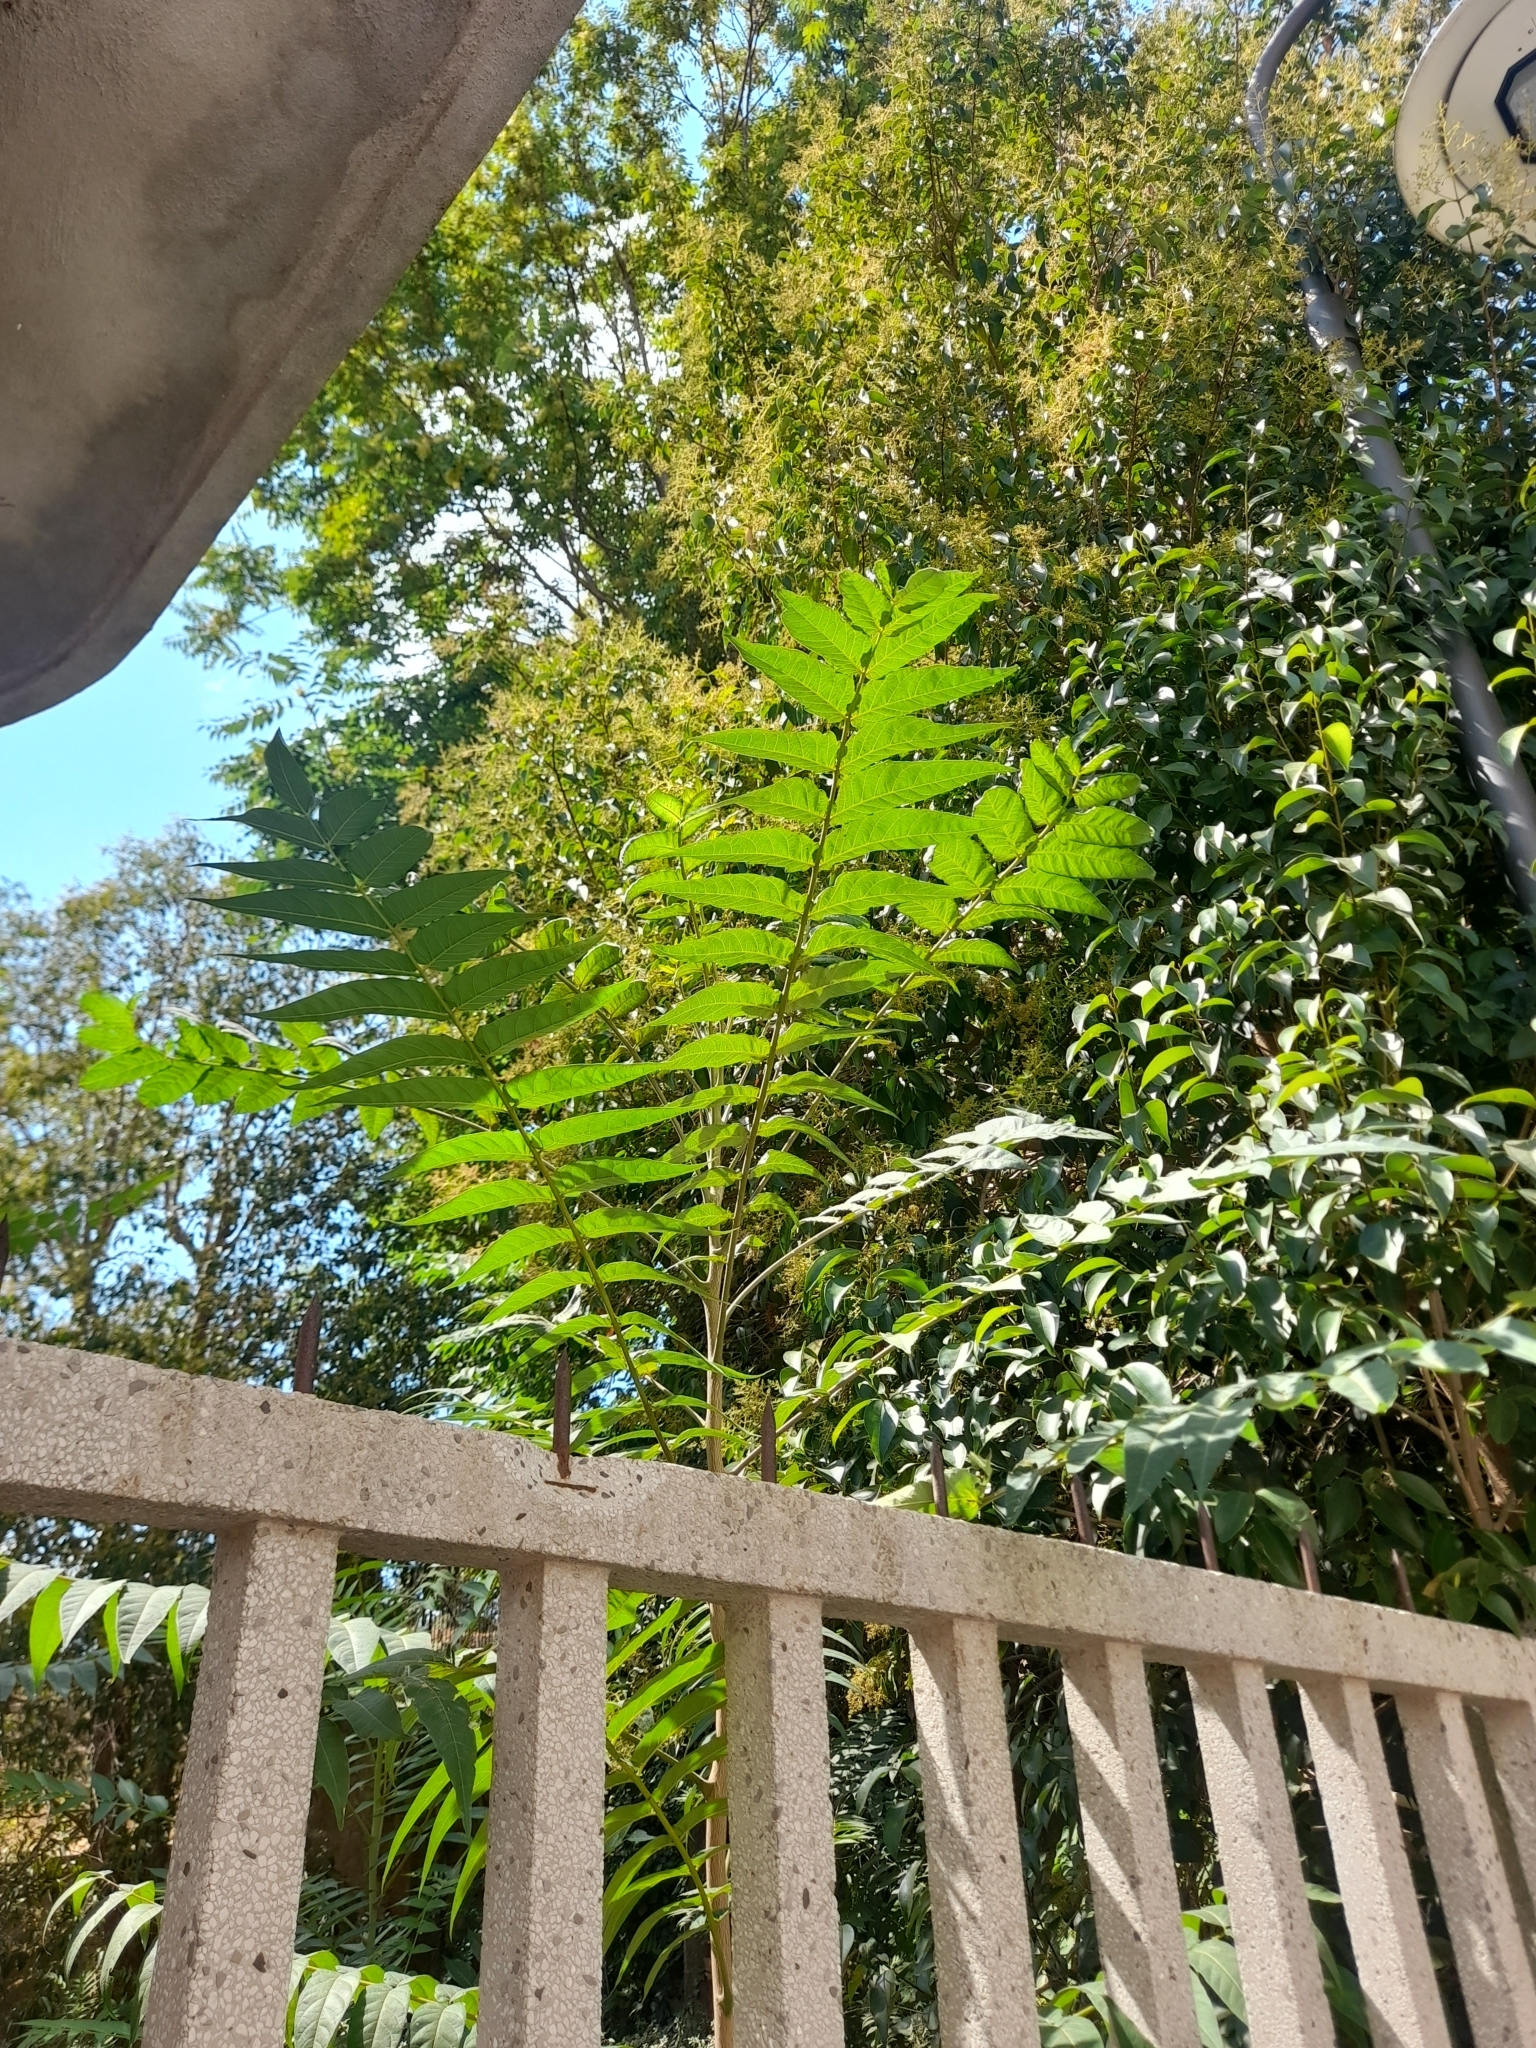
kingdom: Plantae
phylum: Tracheophyta
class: Magnoliopsida
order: Sapindales
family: Simaroubaceae
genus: Ailanthus
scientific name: Ailanthus altissima
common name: Tree-of-heaven
